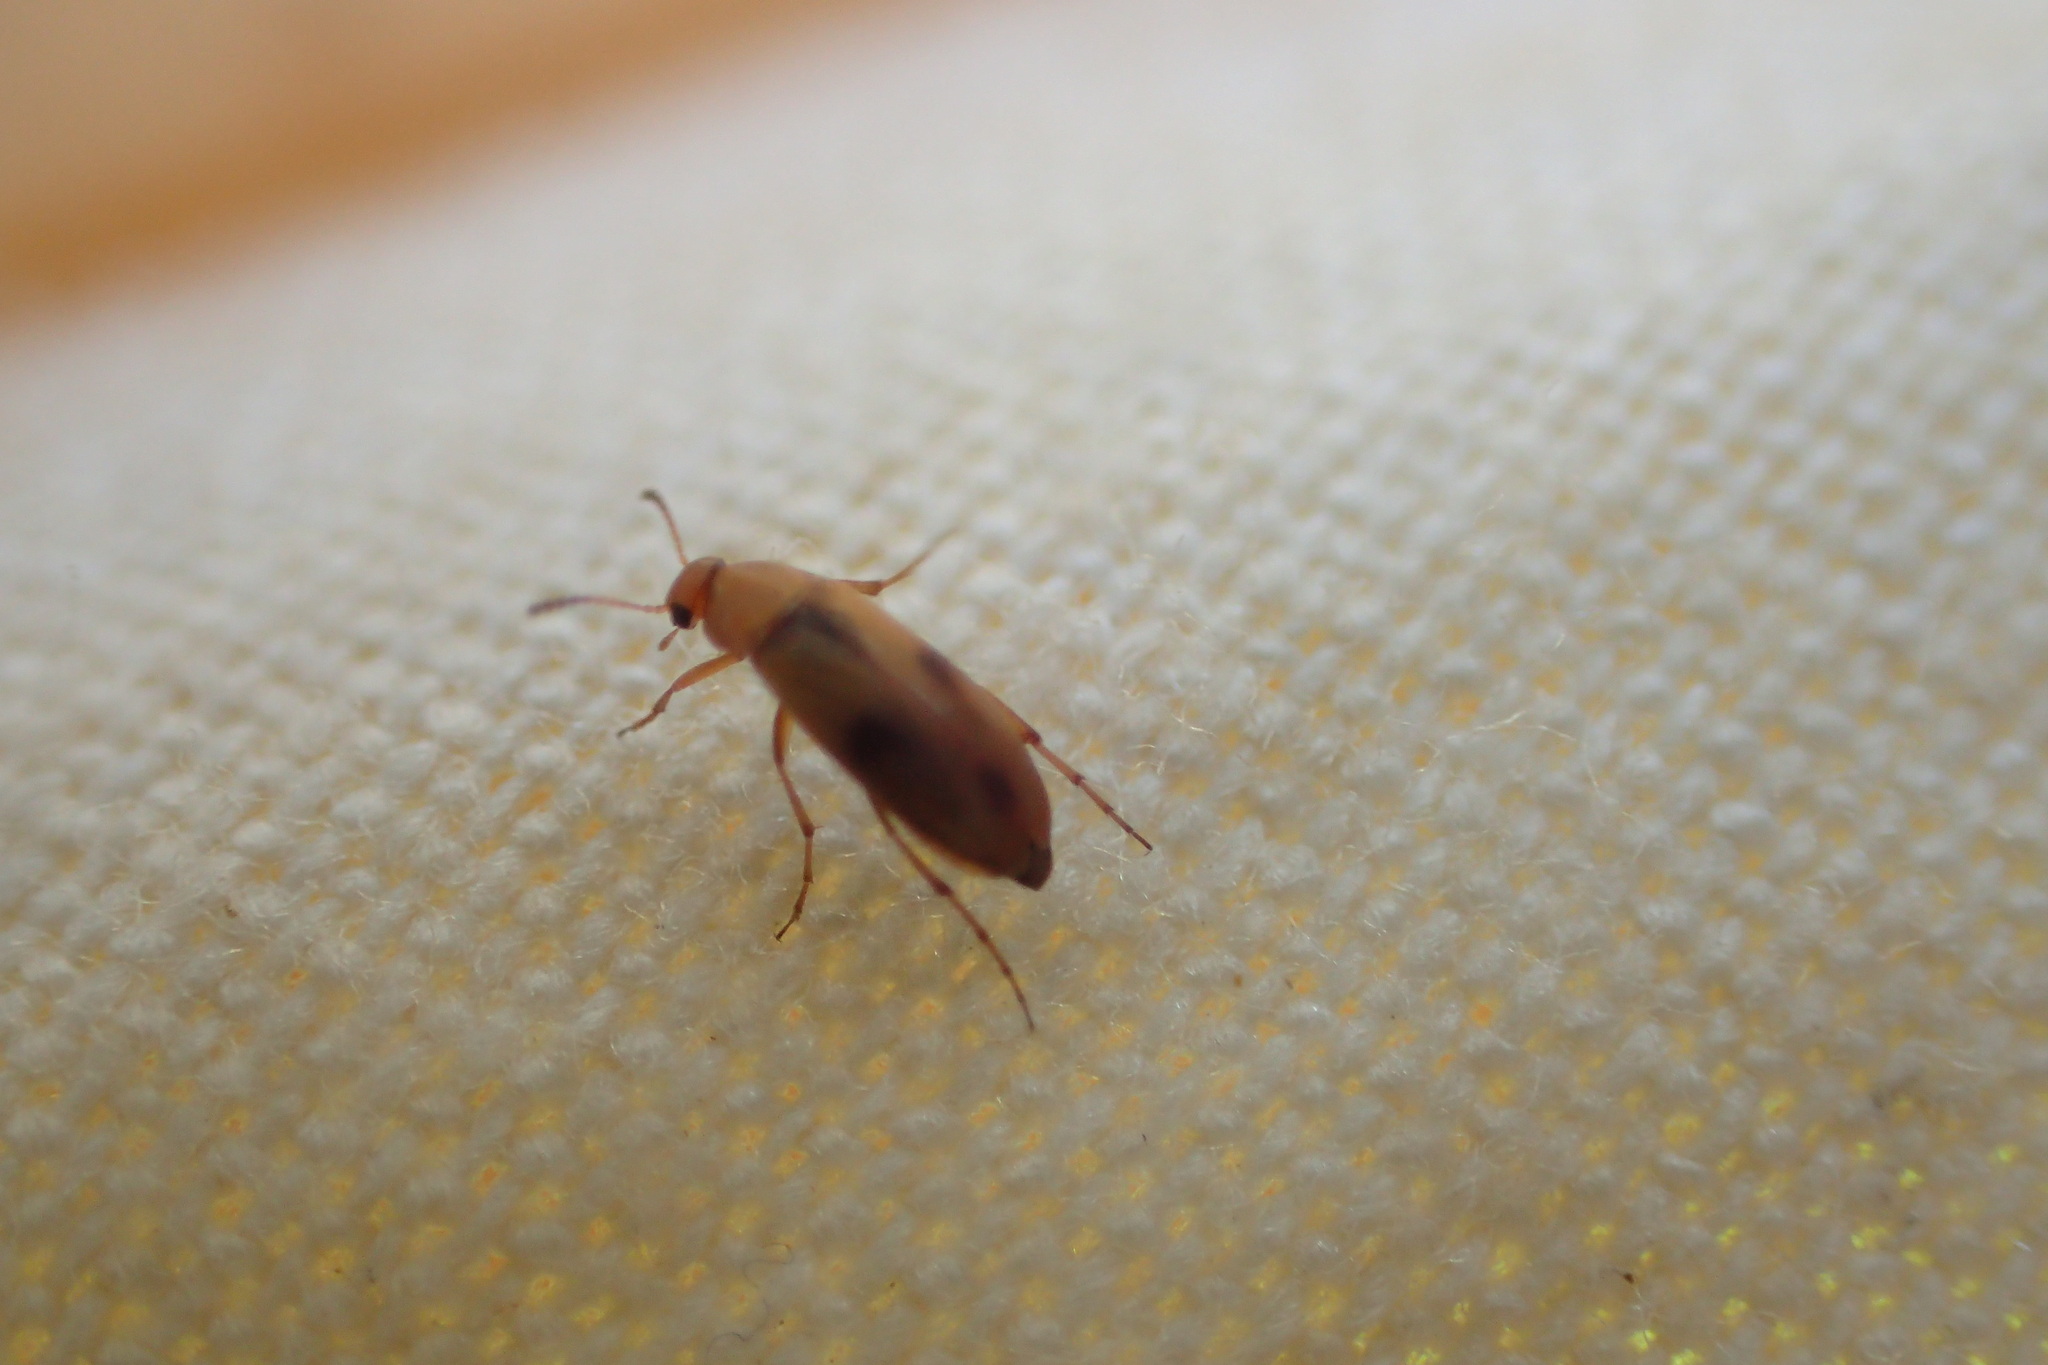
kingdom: Animalia
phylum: Arthropoda
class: Insecta
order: Coleoptera
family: Scraptiidae
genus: Anaspis
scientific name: Anaspis maculata
